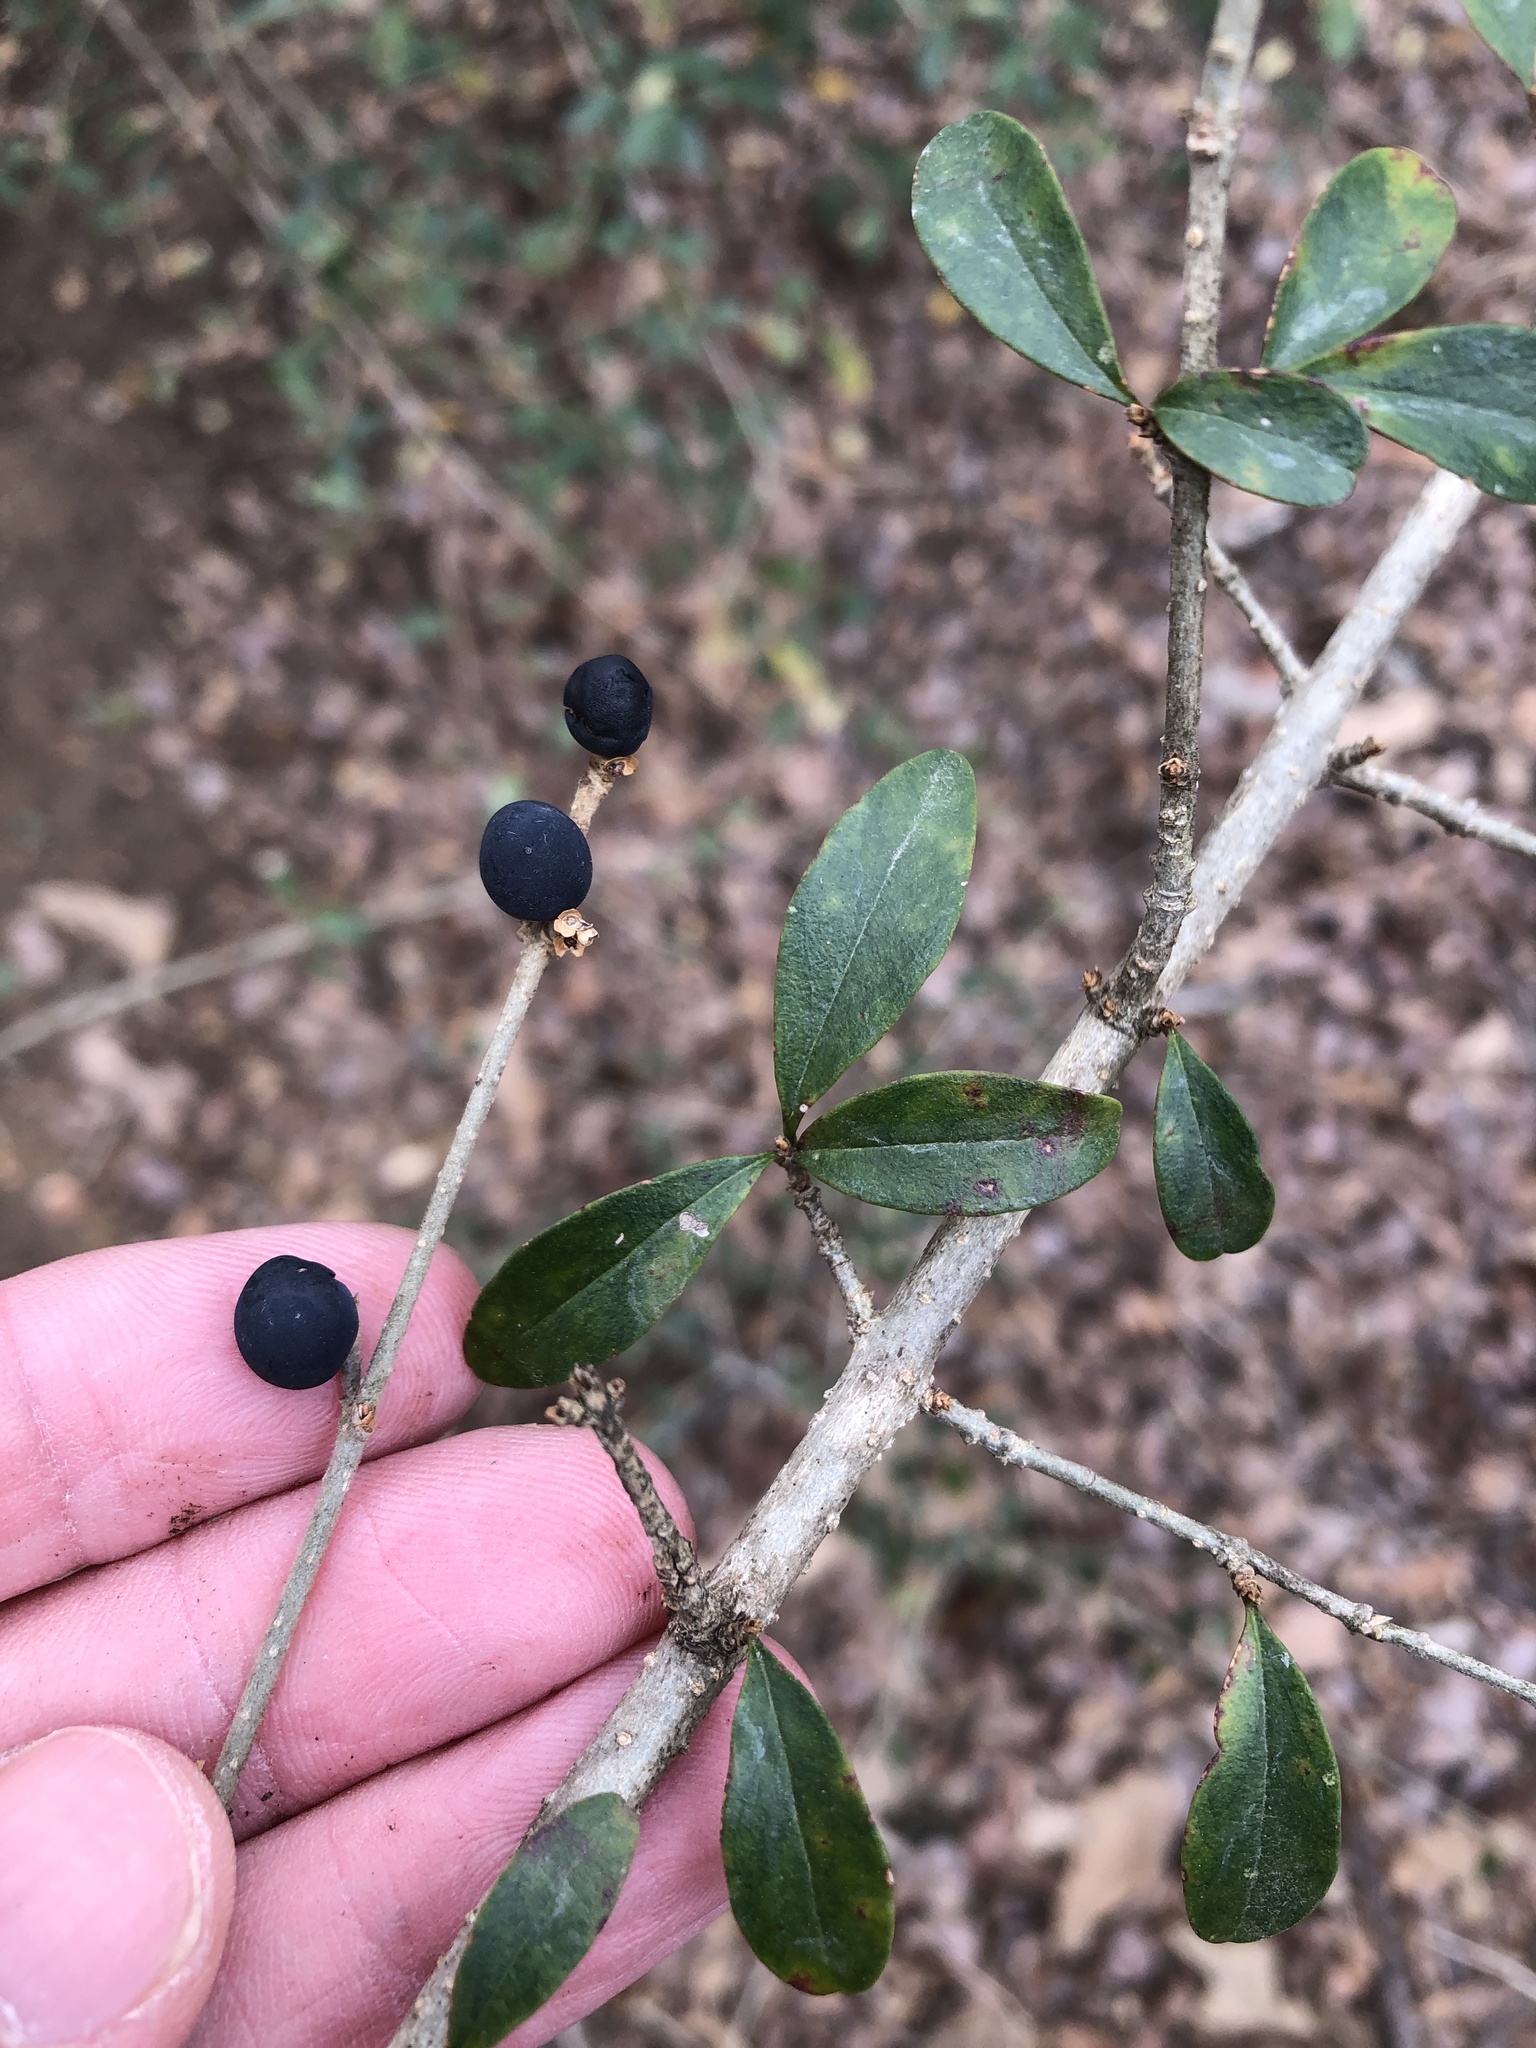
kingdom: Plantae
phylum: Tracheophyta
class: Magnoliopsida
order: Lamiales
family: Oleaceae
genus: Ligustrum
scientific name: Ligustrum quihoui
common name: Waxyleaf privet
